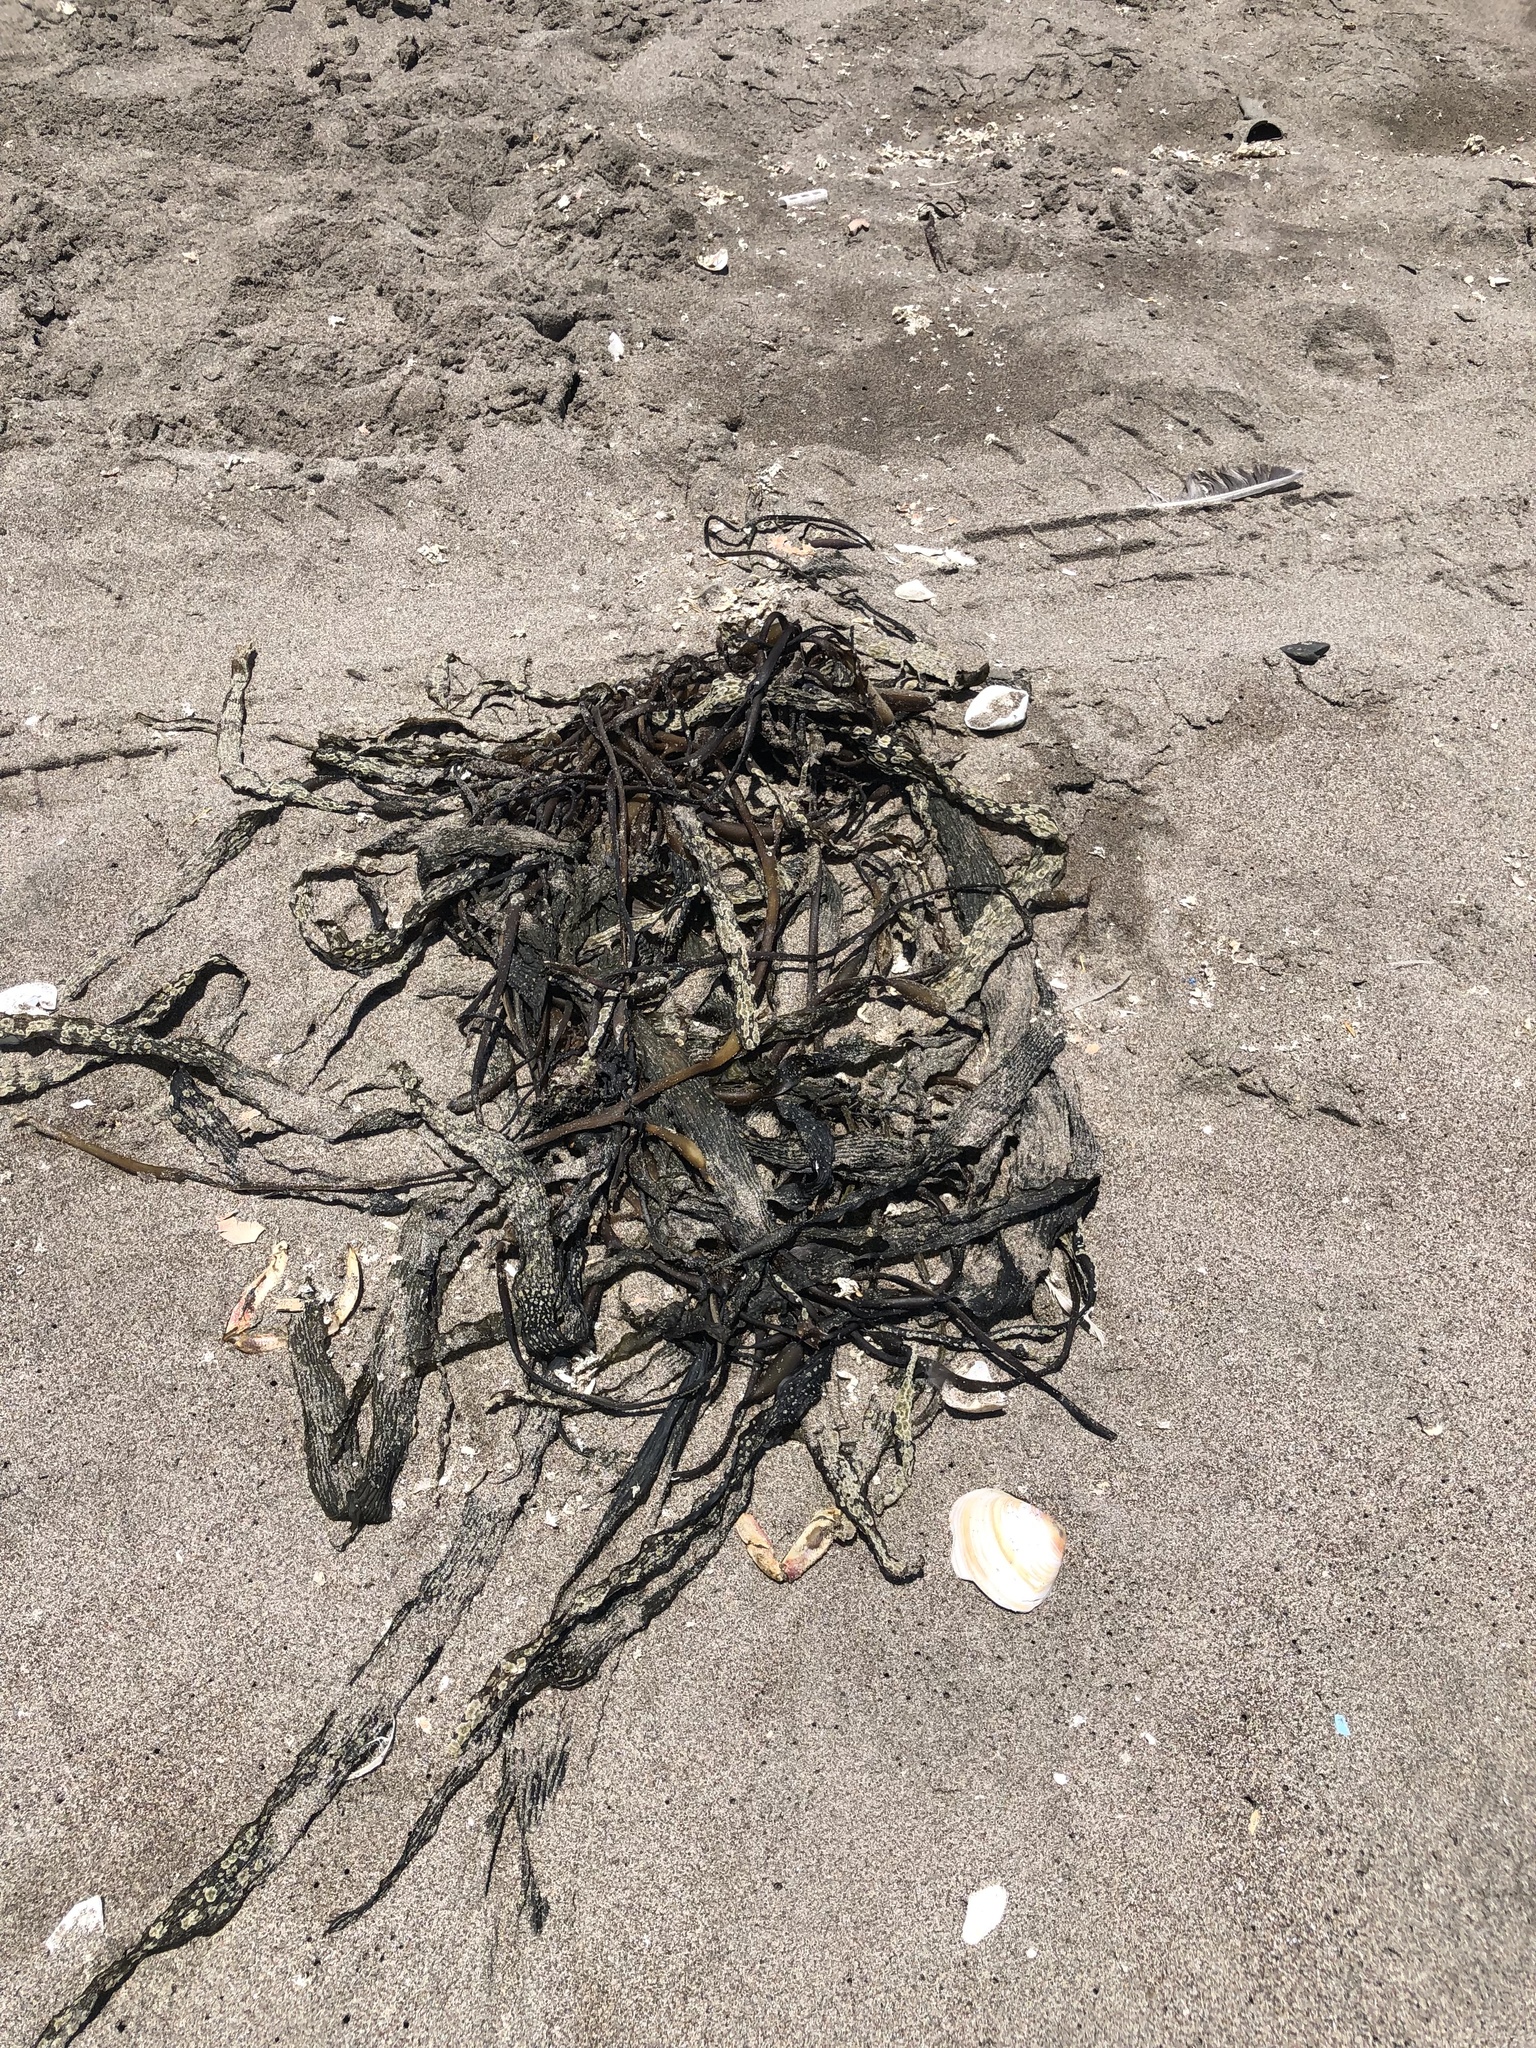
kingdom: Chromista
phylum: Ochrophyta
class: Phaeophyceae
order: Laminariales
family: Laminariaceae
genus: Macrocystis
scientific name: Macrocystis pyrifera
